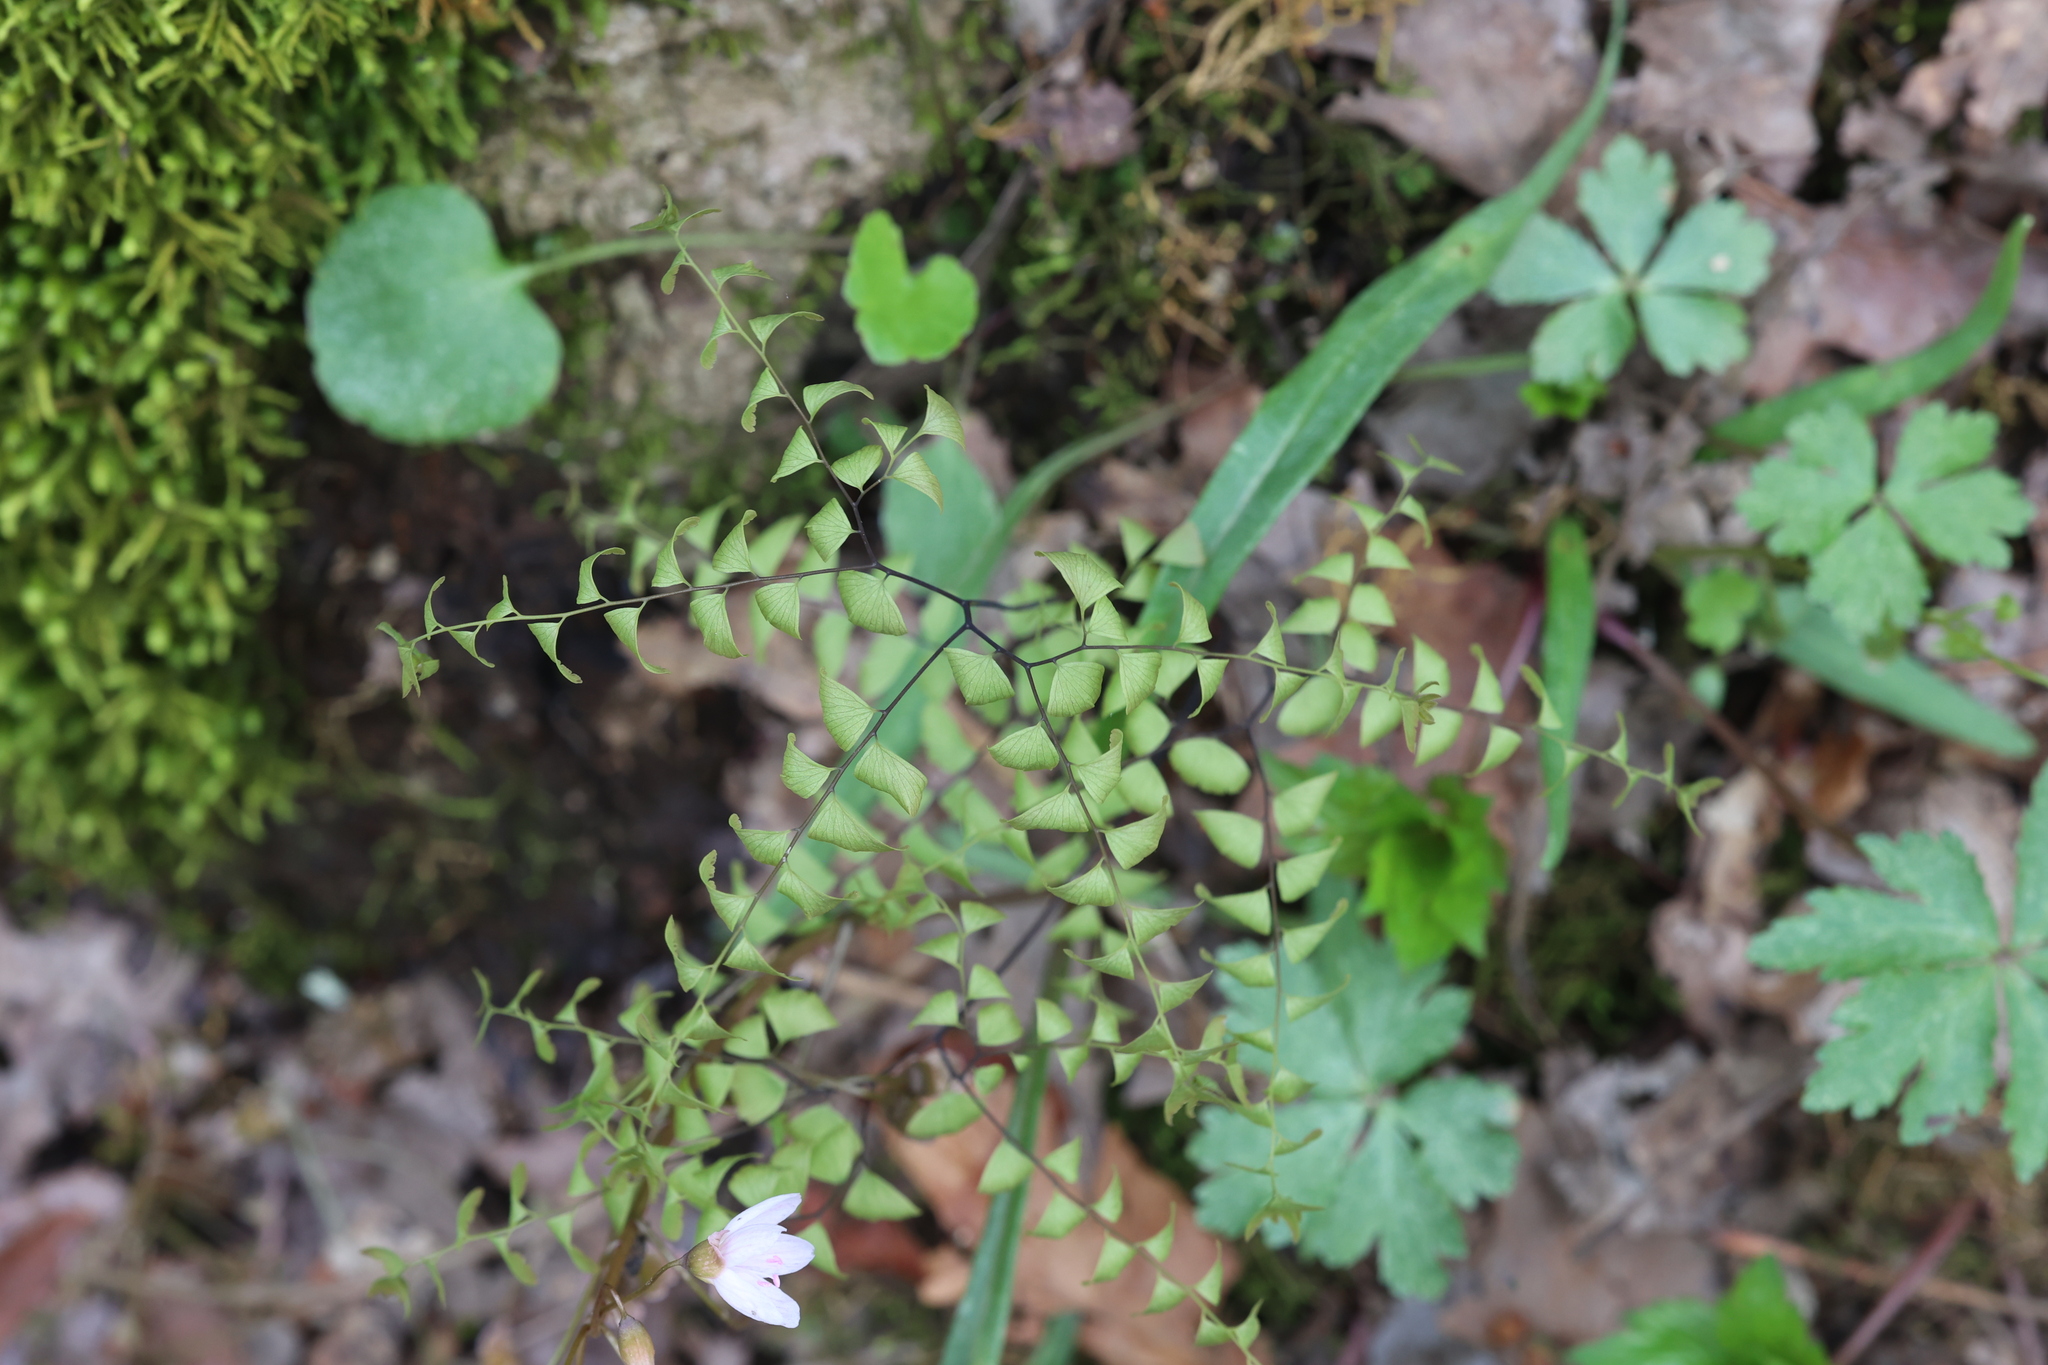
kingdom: Plantae
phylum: Tracheophyta
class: Polypodiopsida
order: Polypodiales
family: Pteridaceae
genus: Adiantum
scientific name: Adiantum pedatum
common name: Five-finger fern
